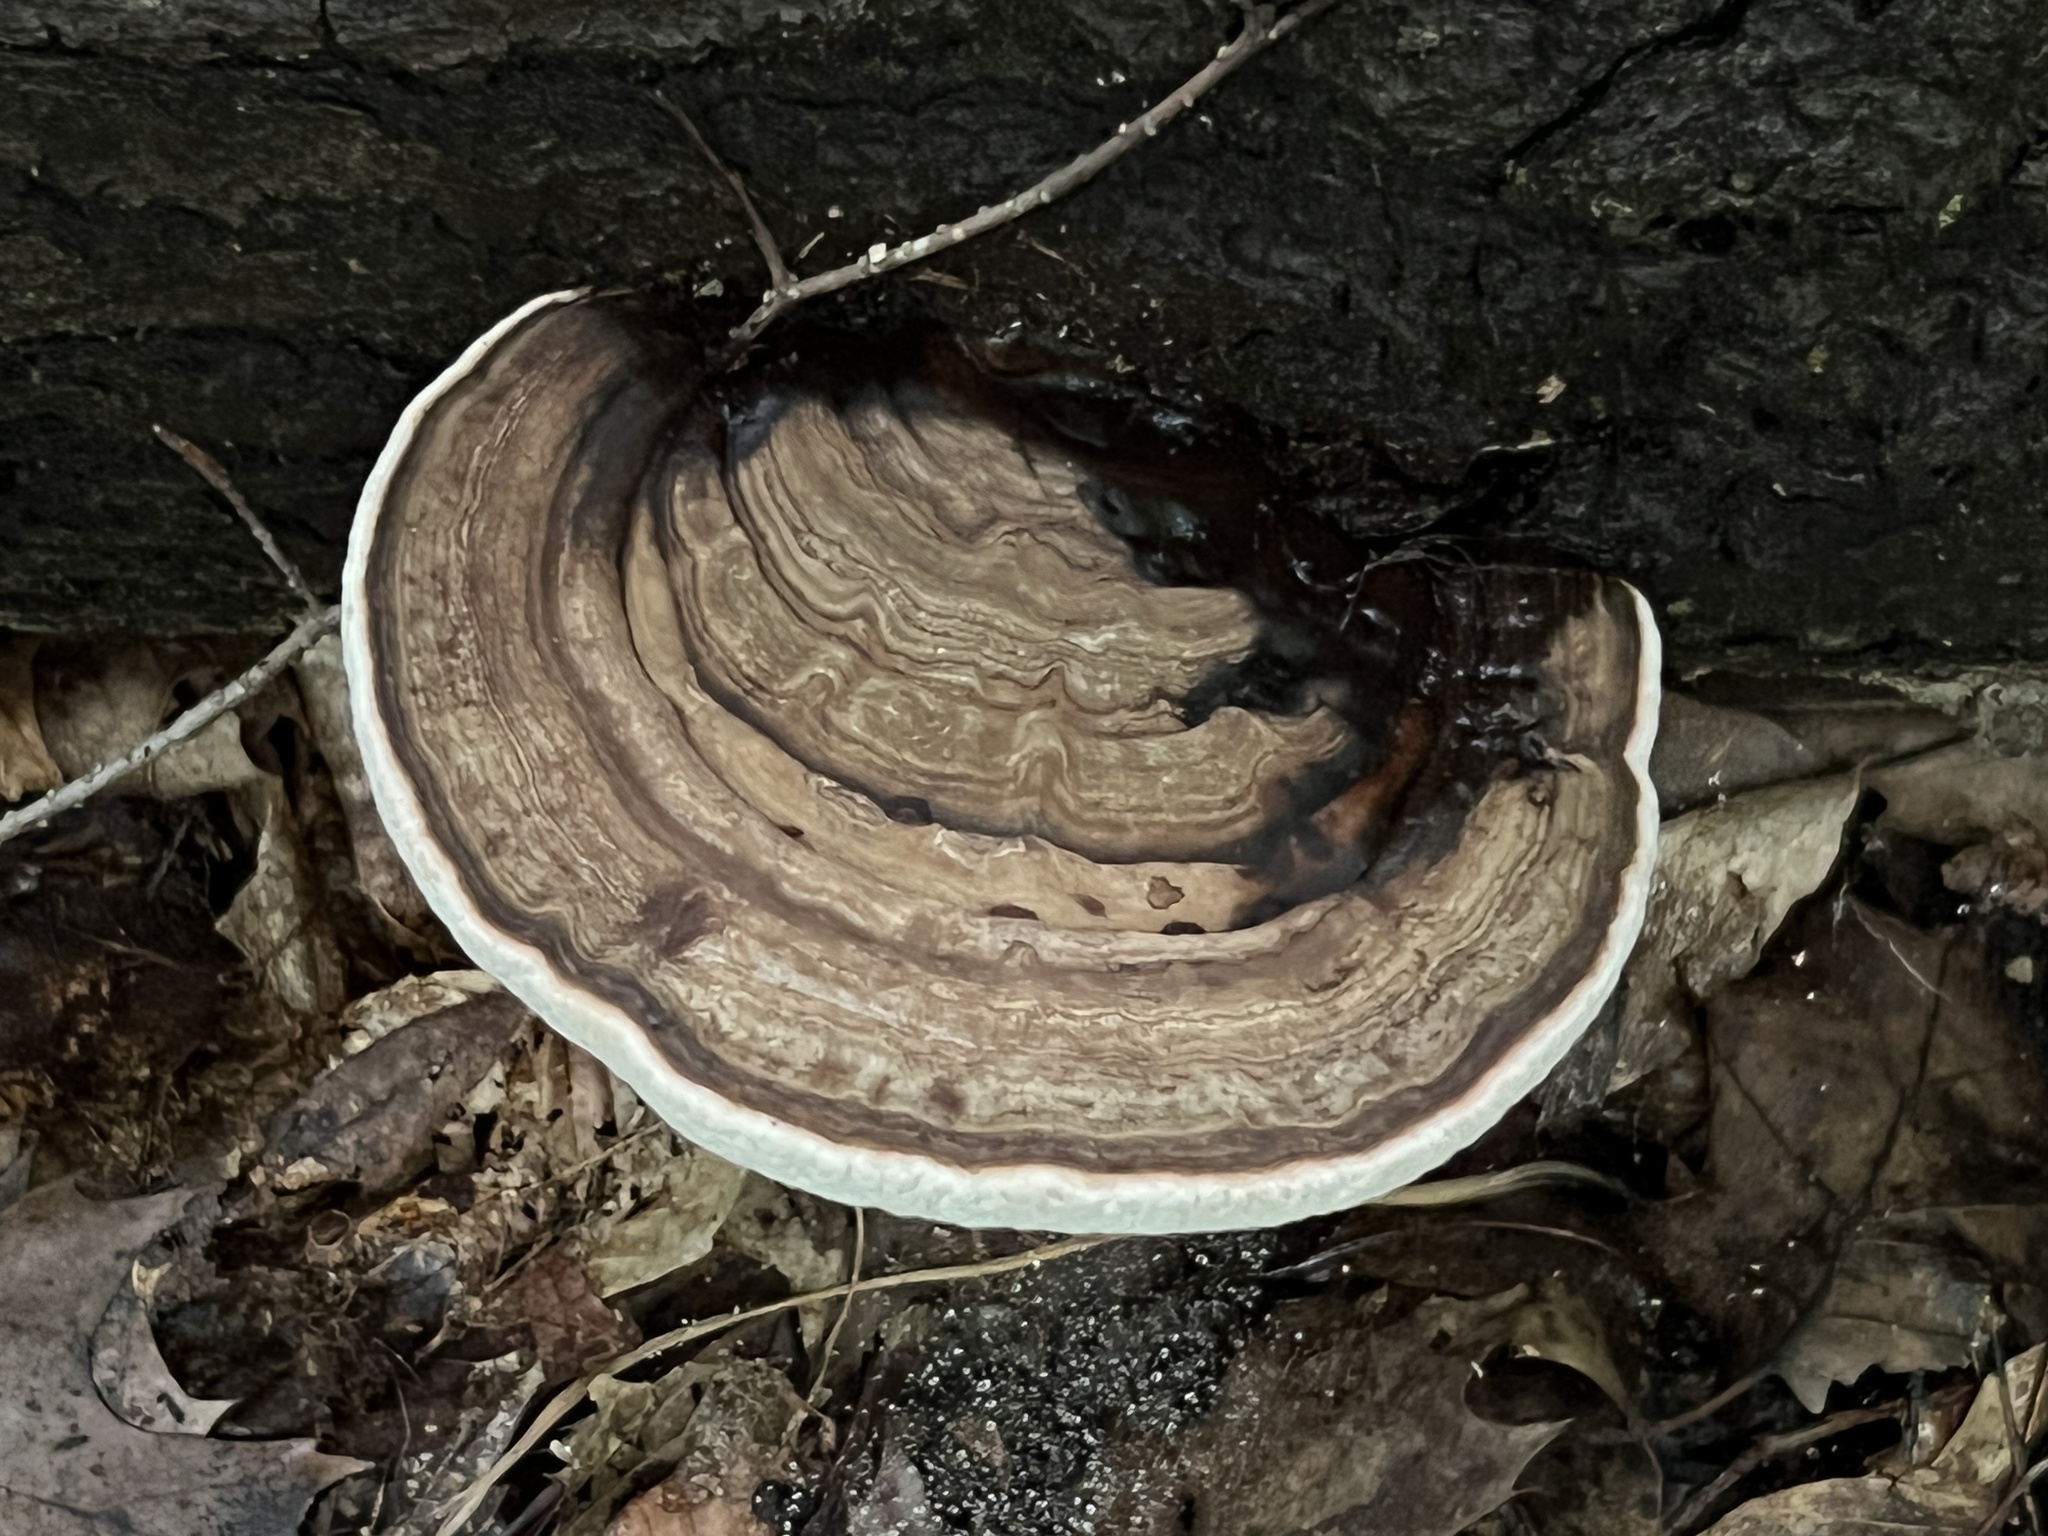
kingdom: Fungi
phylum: Basidiomycota
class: Agaricomycetes
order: Polyporales
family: Polyporaceae
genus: Ganoderma
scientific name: Ganoderma applanatum
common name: Artist's bracket
